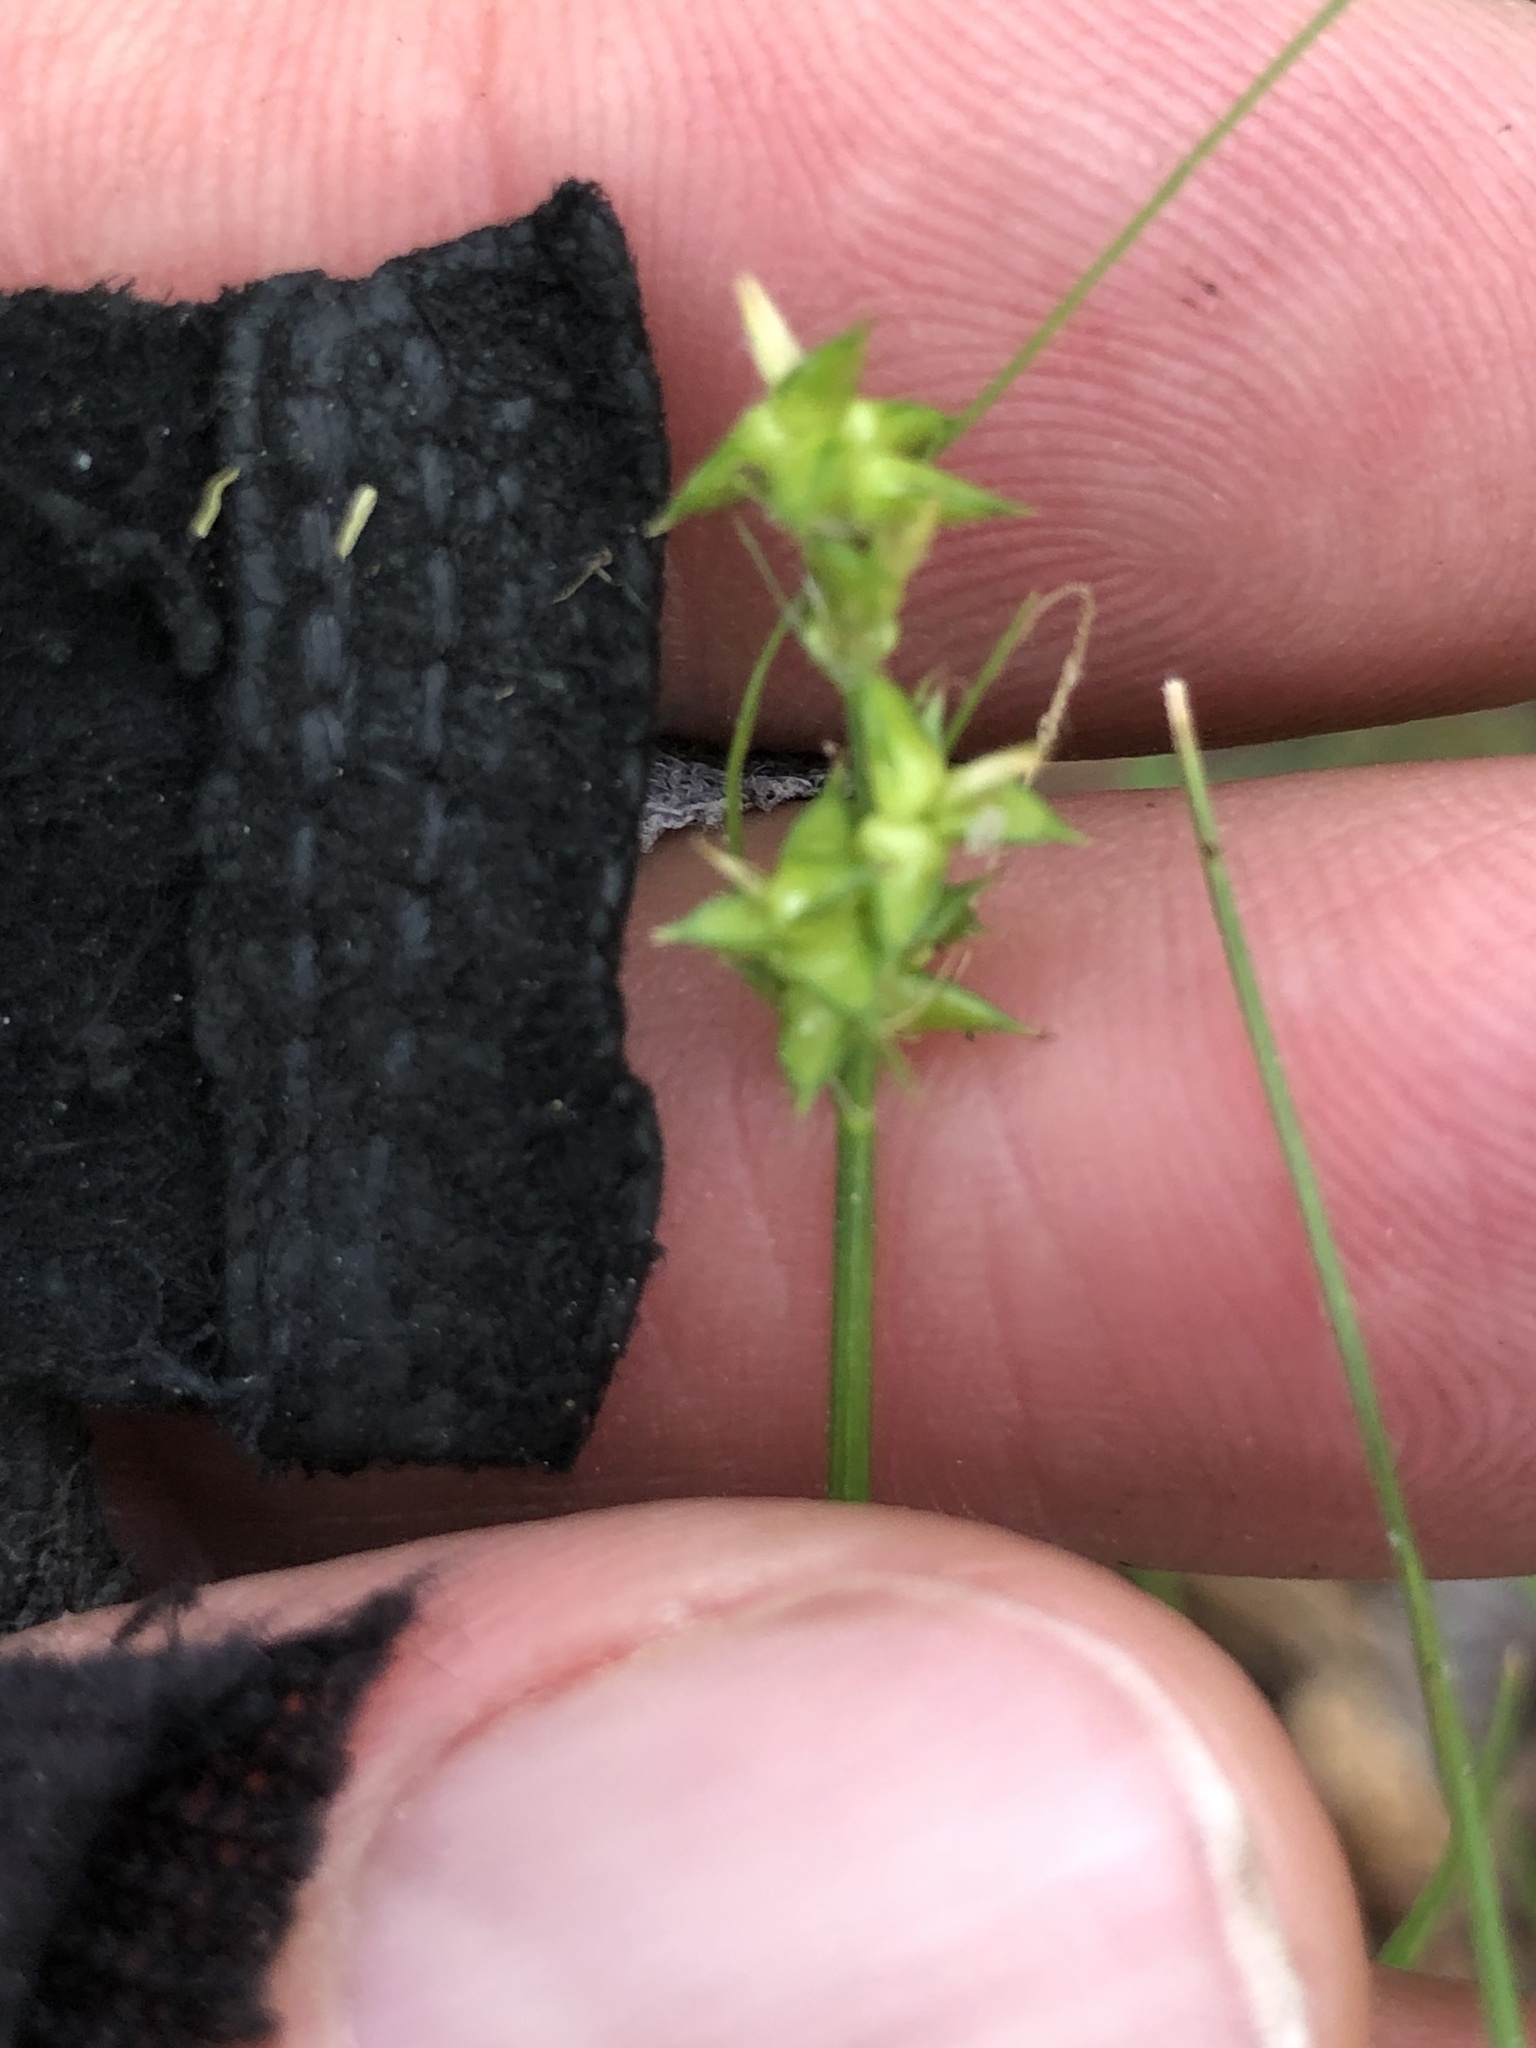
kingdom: Plantae
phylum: Tracheophyta
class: Liliopsida
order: Poales
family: Cyperaceae
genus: Carex
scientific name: Carex retroflexa
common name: Reflexed sedge
